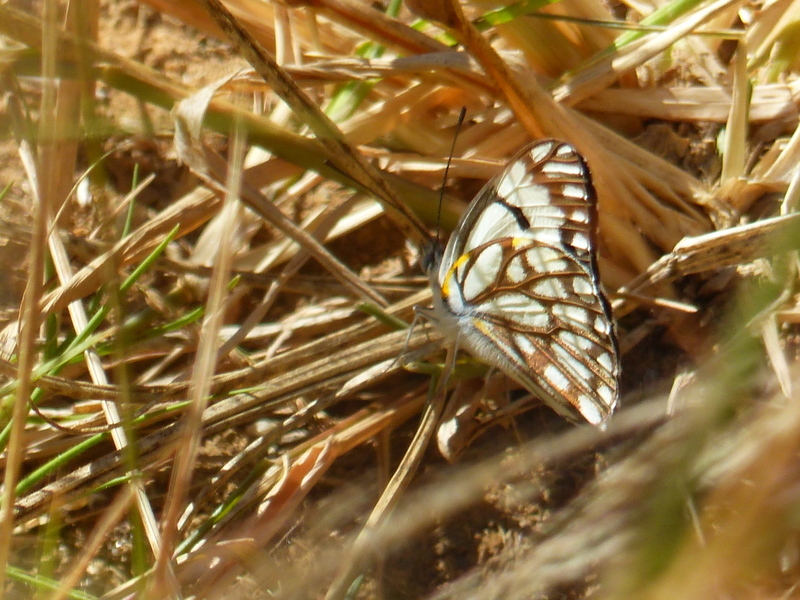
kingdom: Animalia
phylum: Arthropoda
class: Insecta
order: Lepidoptera
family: Pieridae
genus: Belenois
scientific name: Belenois aurota
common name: Brown-veined white
